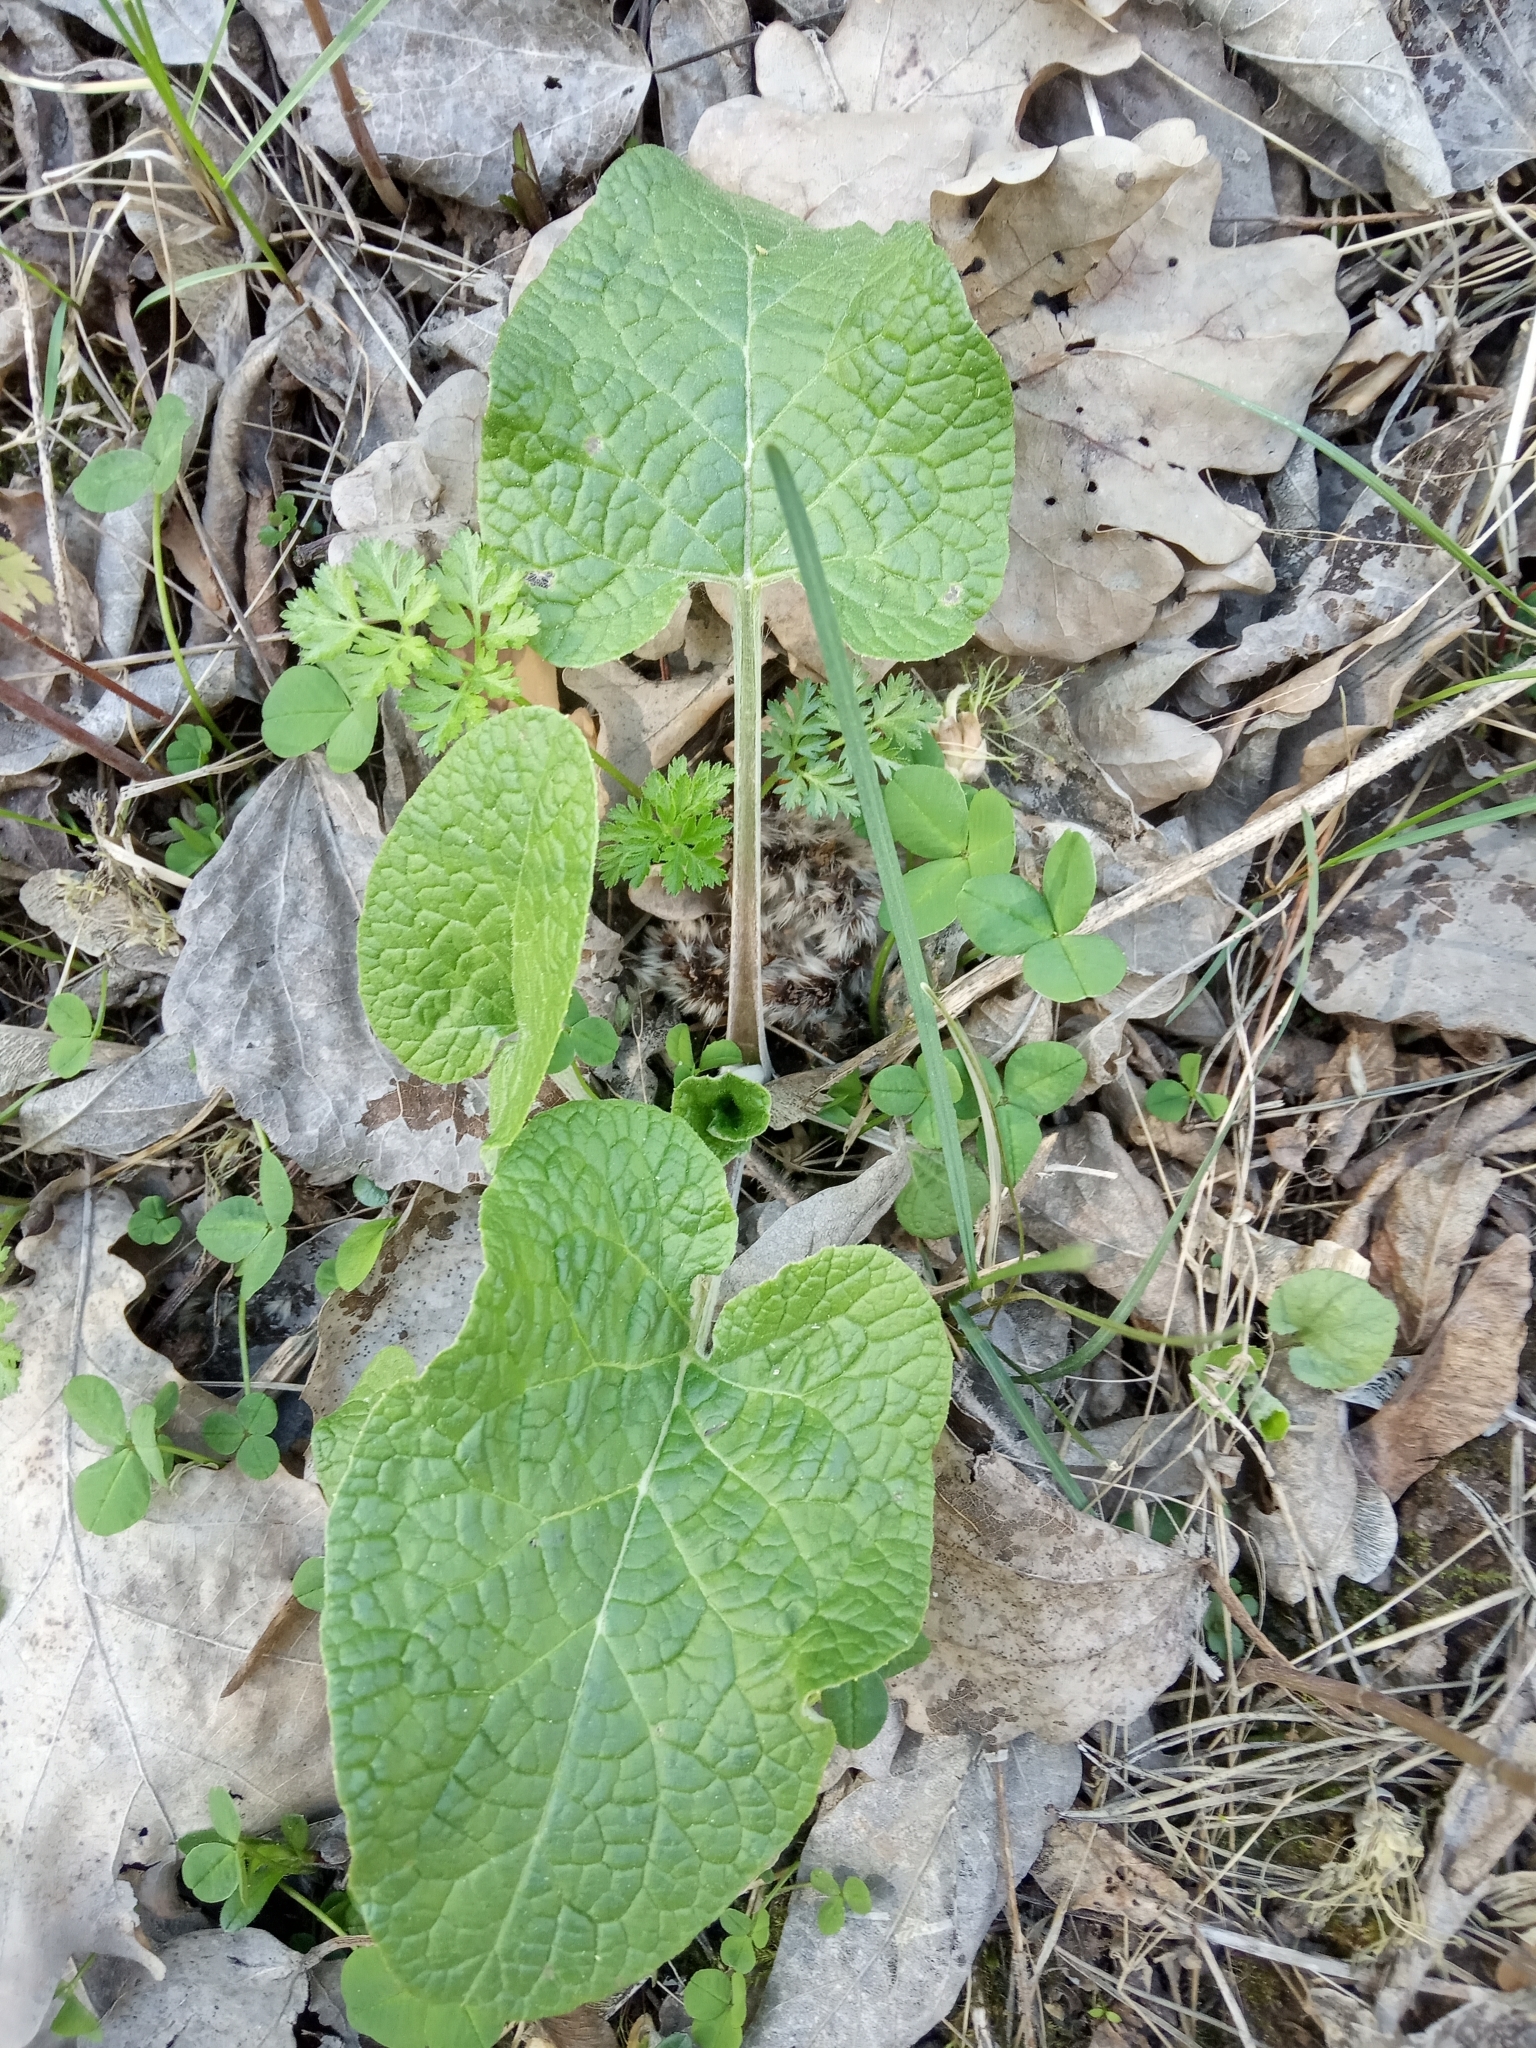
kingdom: Plantae
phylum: Tracheophyta
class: Magnoliopsida
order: Asterales
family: Asteraceae
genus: Arctium
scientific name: Arctium
